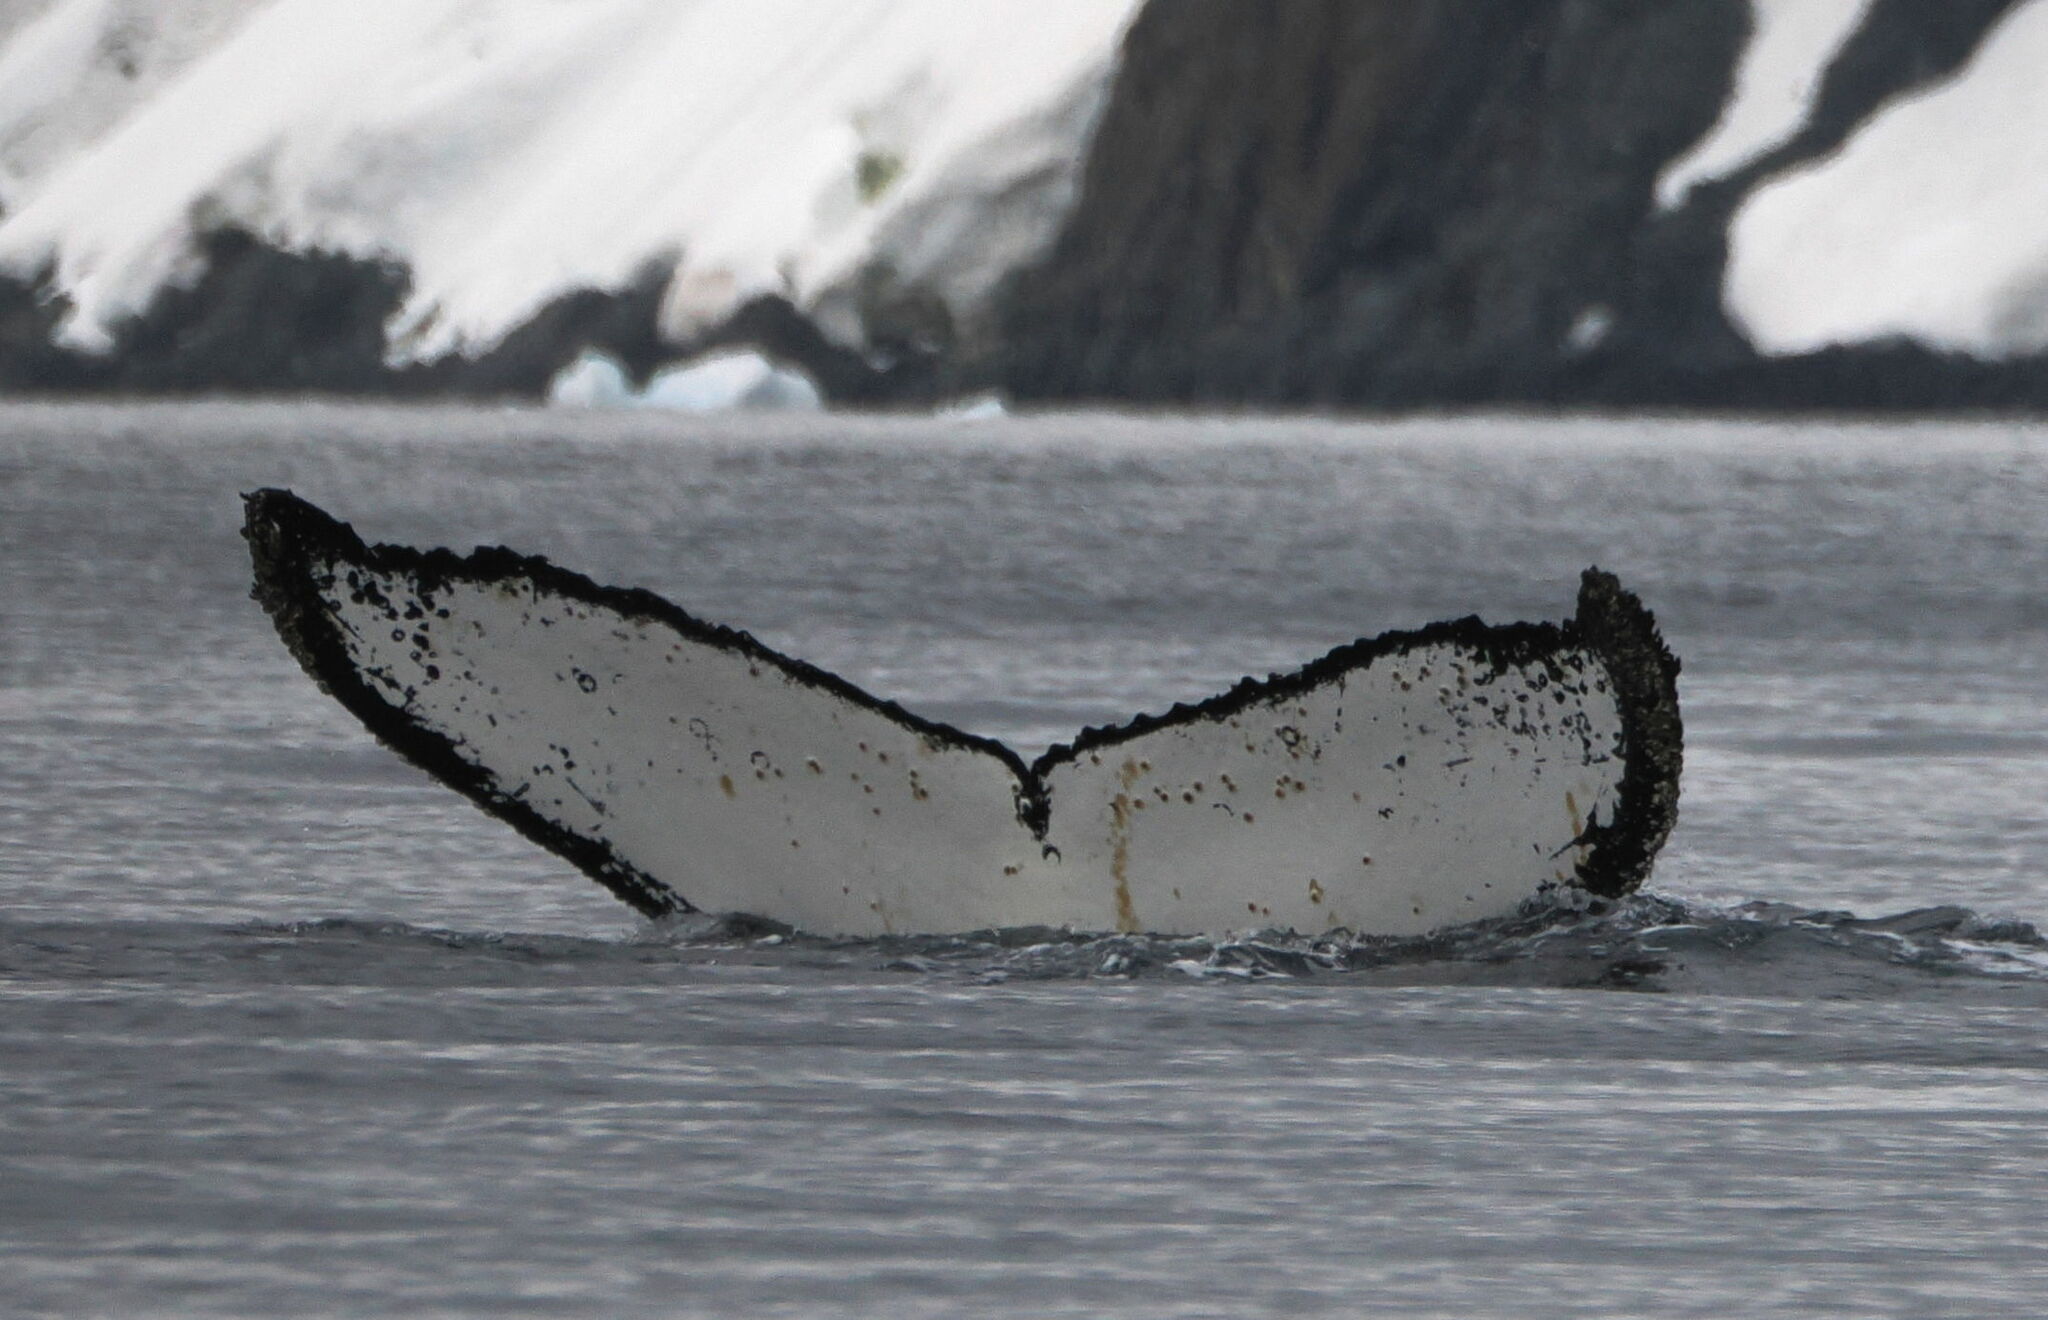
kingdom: Animalia
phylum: Chordata
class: Mammalia
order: Cetacea
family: Balaenopteridae
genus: Megaptera
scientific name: Megaptera novaeangliae
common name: Humpback whale
